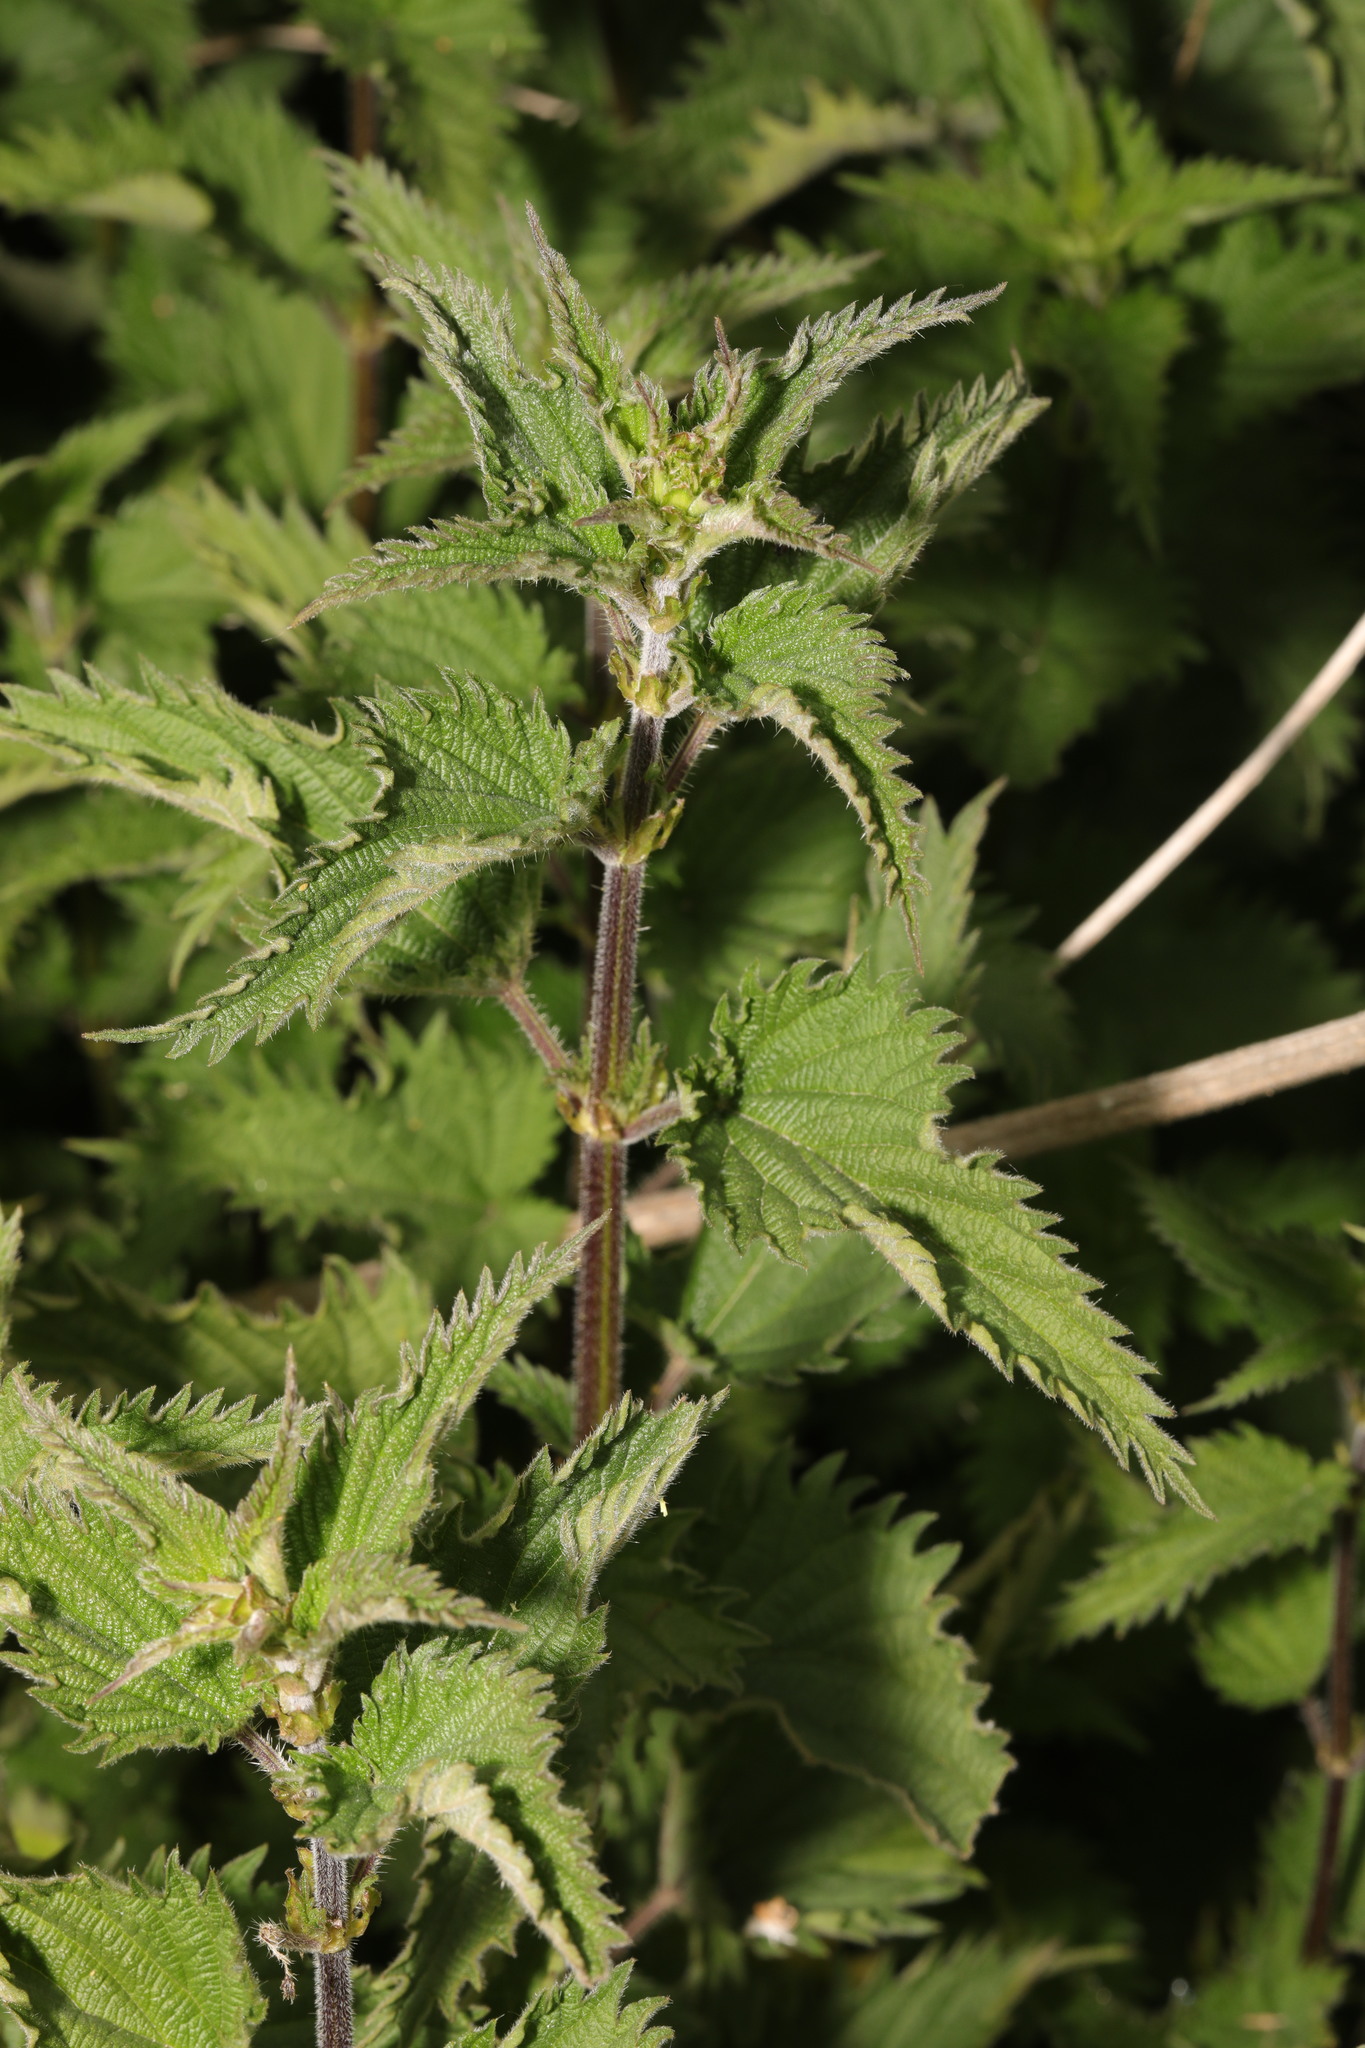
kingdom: Plantae
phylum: Tracheophyta
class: Magnoliopsida
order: Rosales
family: Urticaceae
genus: Urtica
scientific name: Urtica dioica
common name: Common nettle
